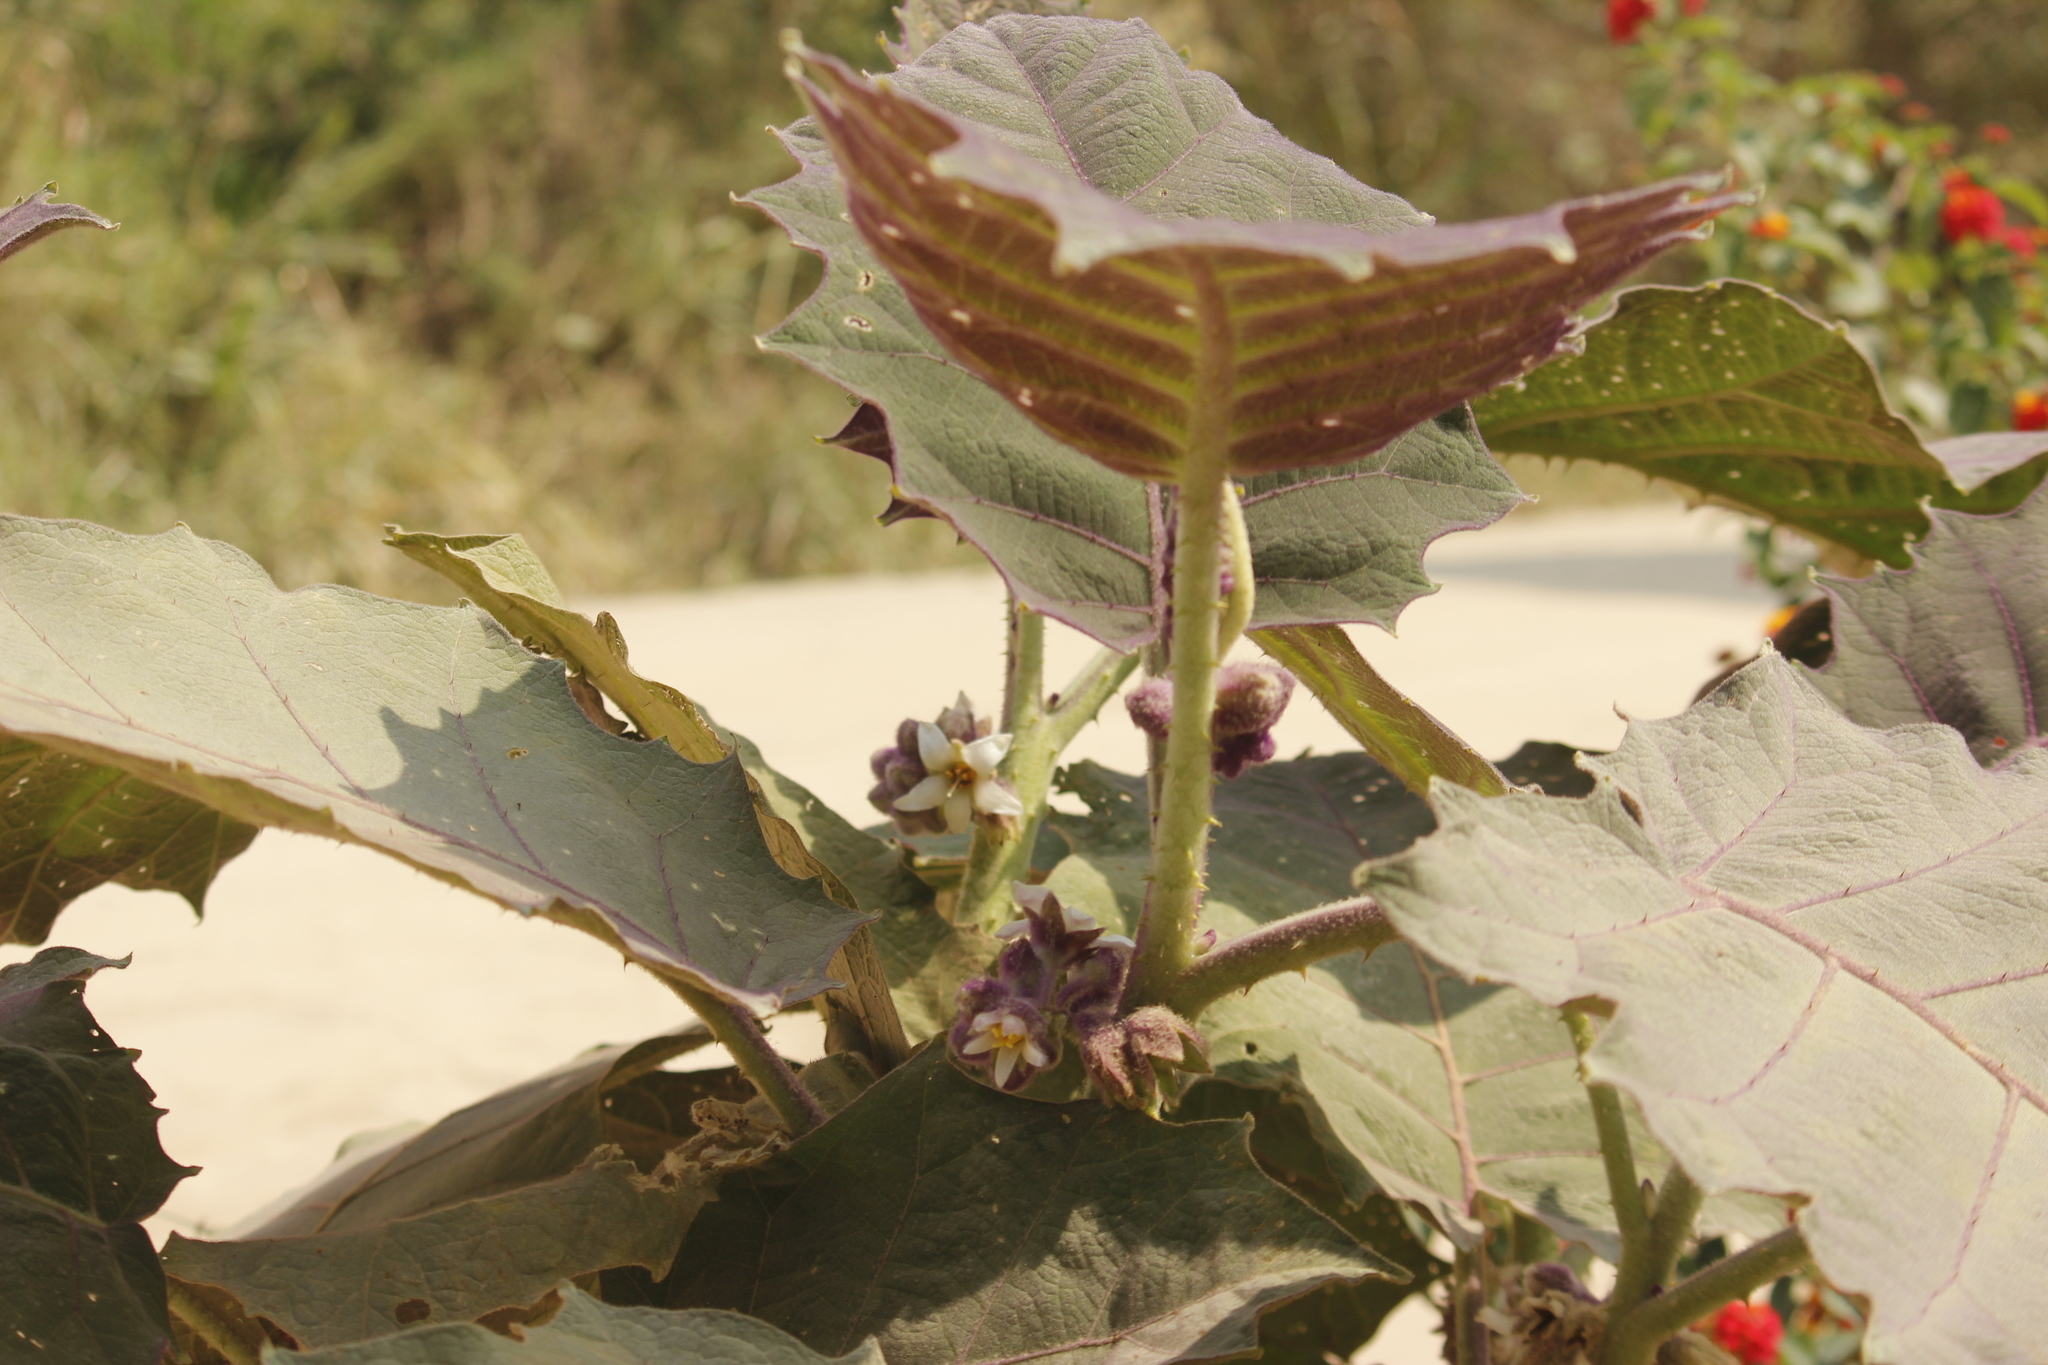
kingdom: Plantae
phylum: Tracheophyta
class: Magnoliopsida
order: Solanales
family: Solanaceae
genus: Solanum
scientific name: Solanum quitoense
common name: Quito-orange
